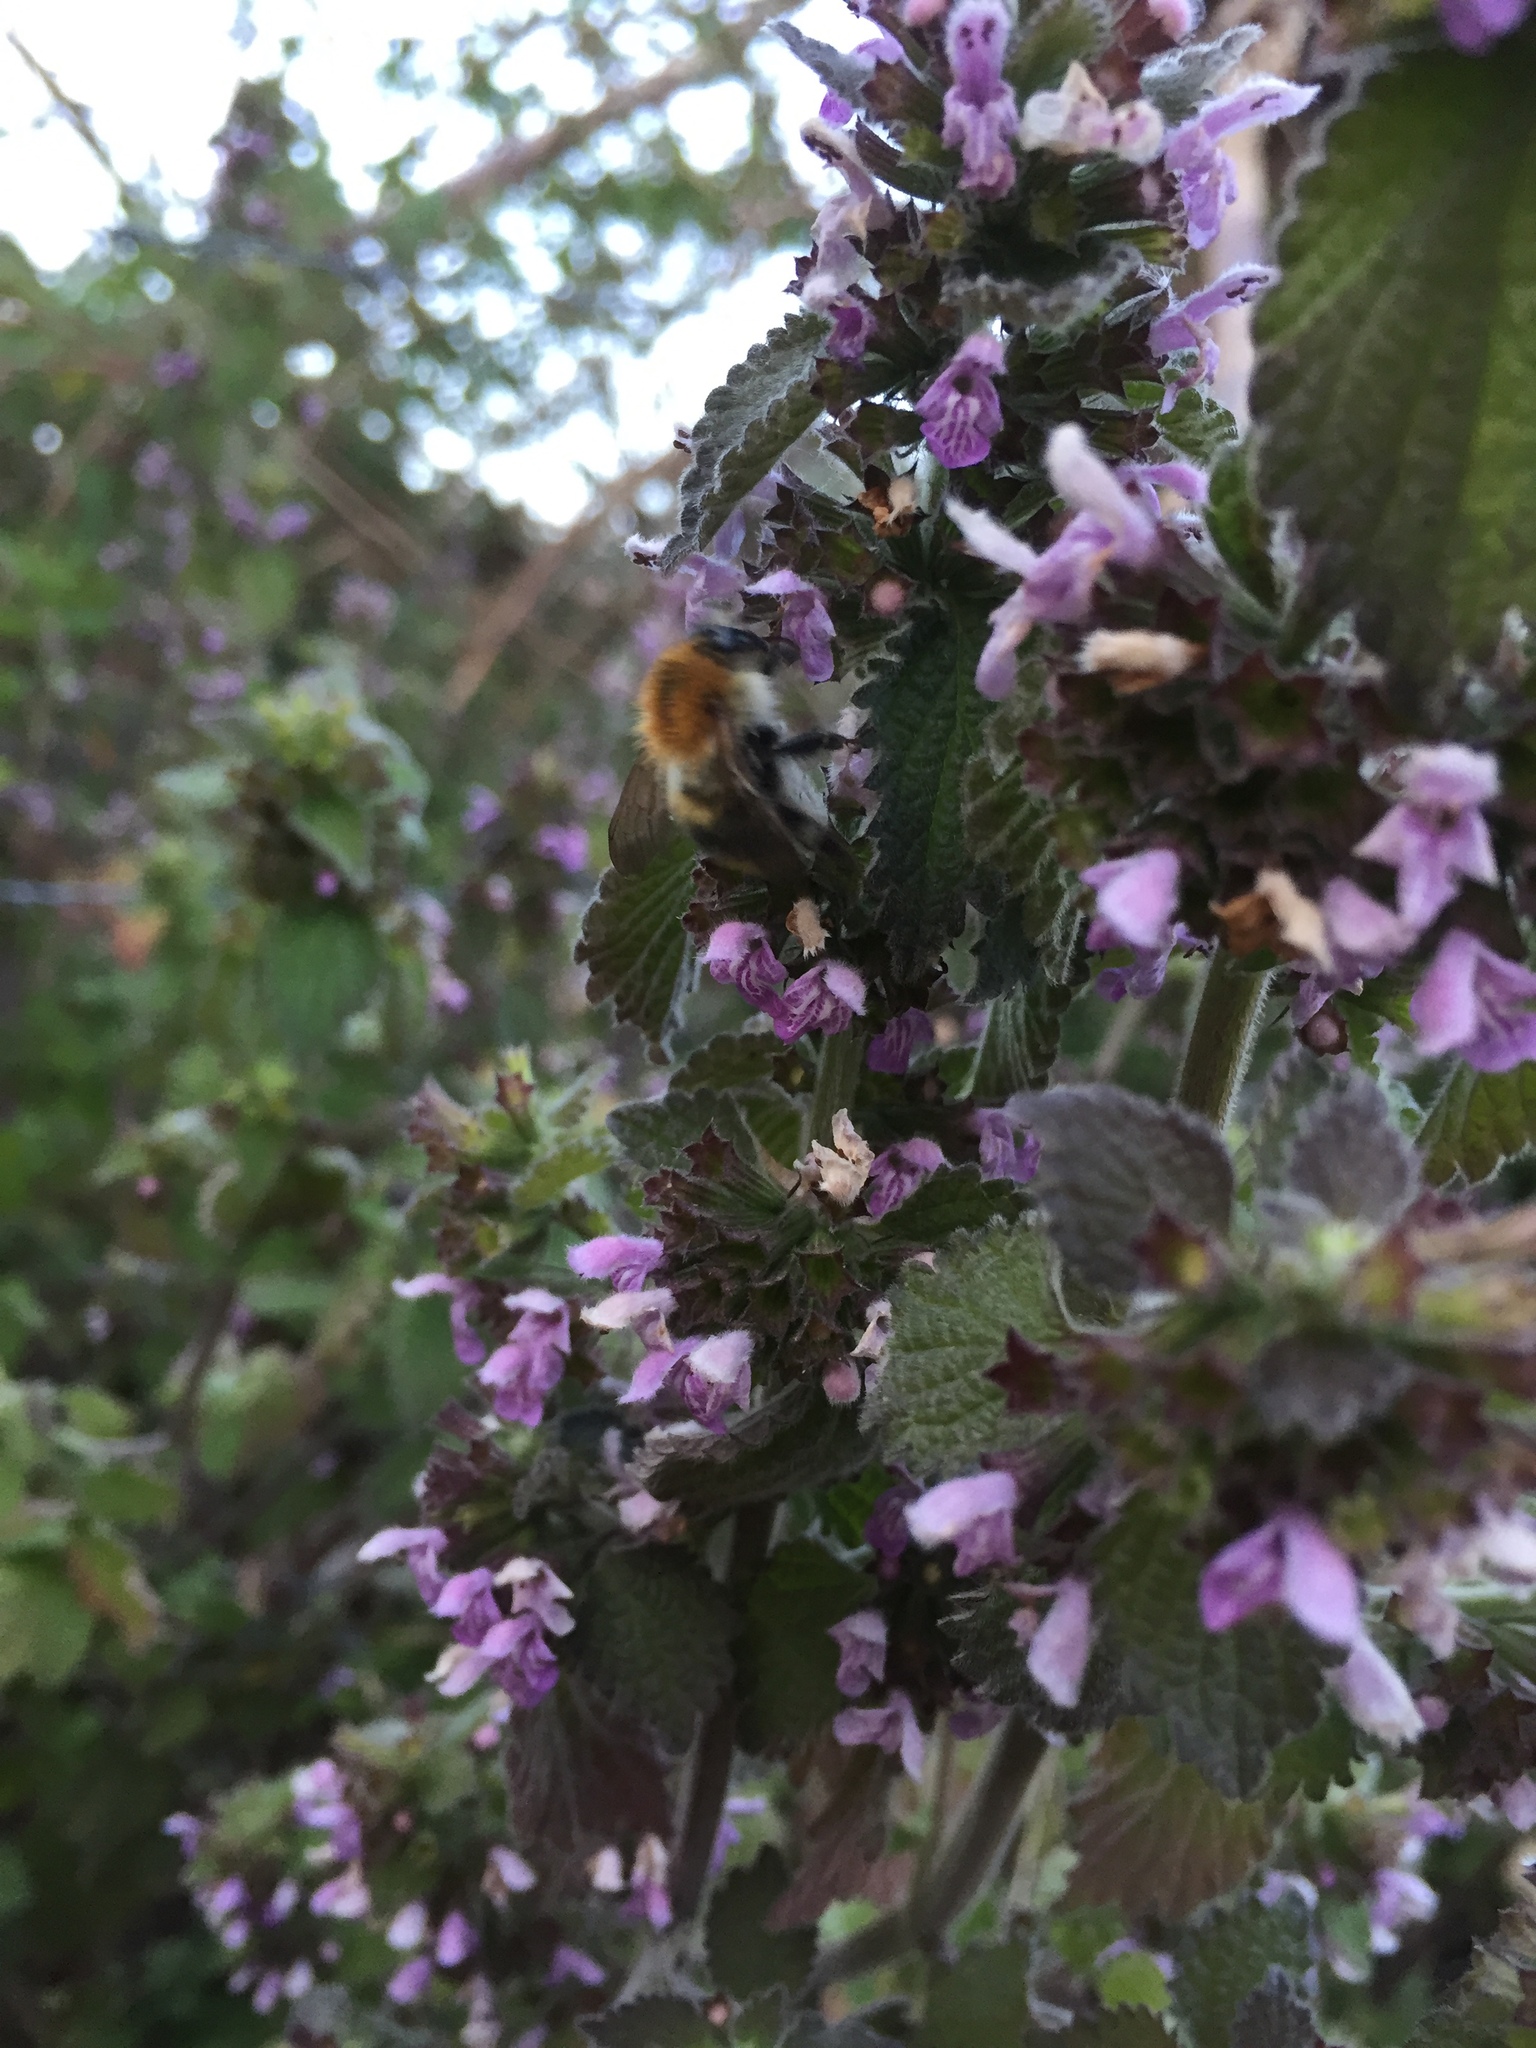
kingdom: Animalia
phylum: Arthropoda
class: Insecta
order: Hymenoptera
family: Apidae
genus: Bombus
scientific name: Bombus pascuorum
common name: Common carder bee
